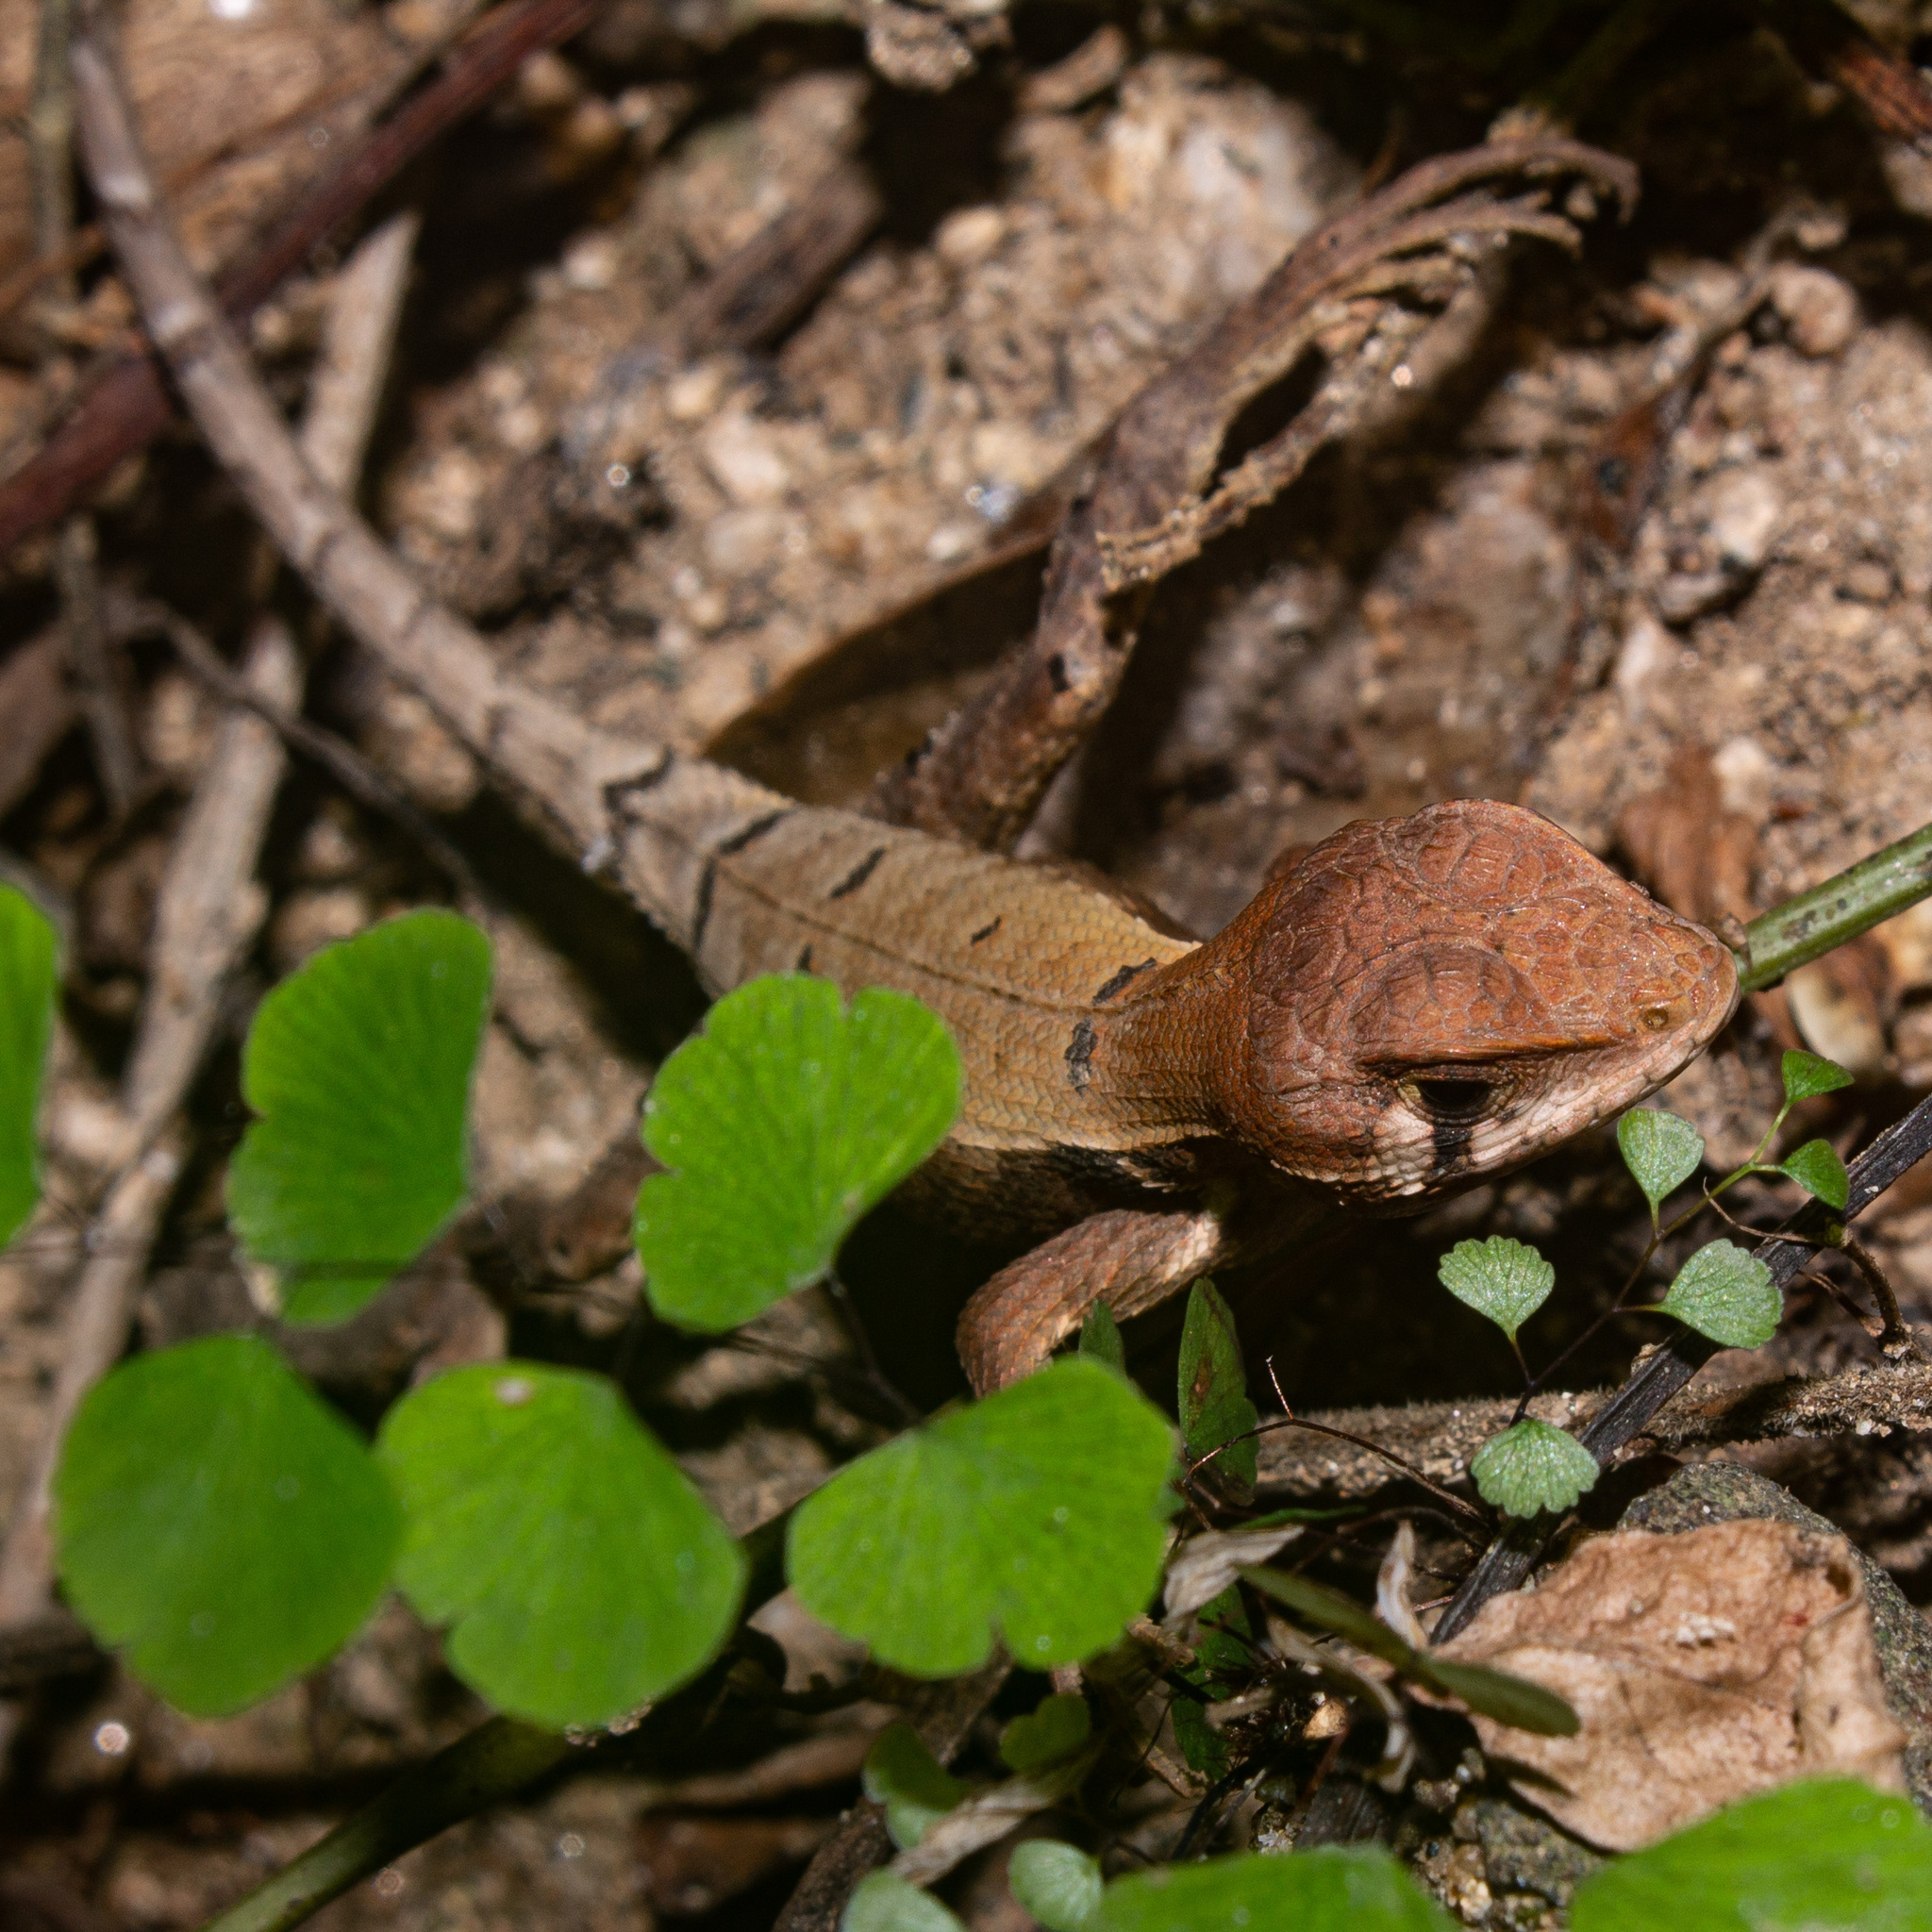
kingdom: Animalia
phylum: Chordata
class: Squamata
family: Tropiduridae
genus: Stenocercus
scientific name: Stenocercus erythrogaster
